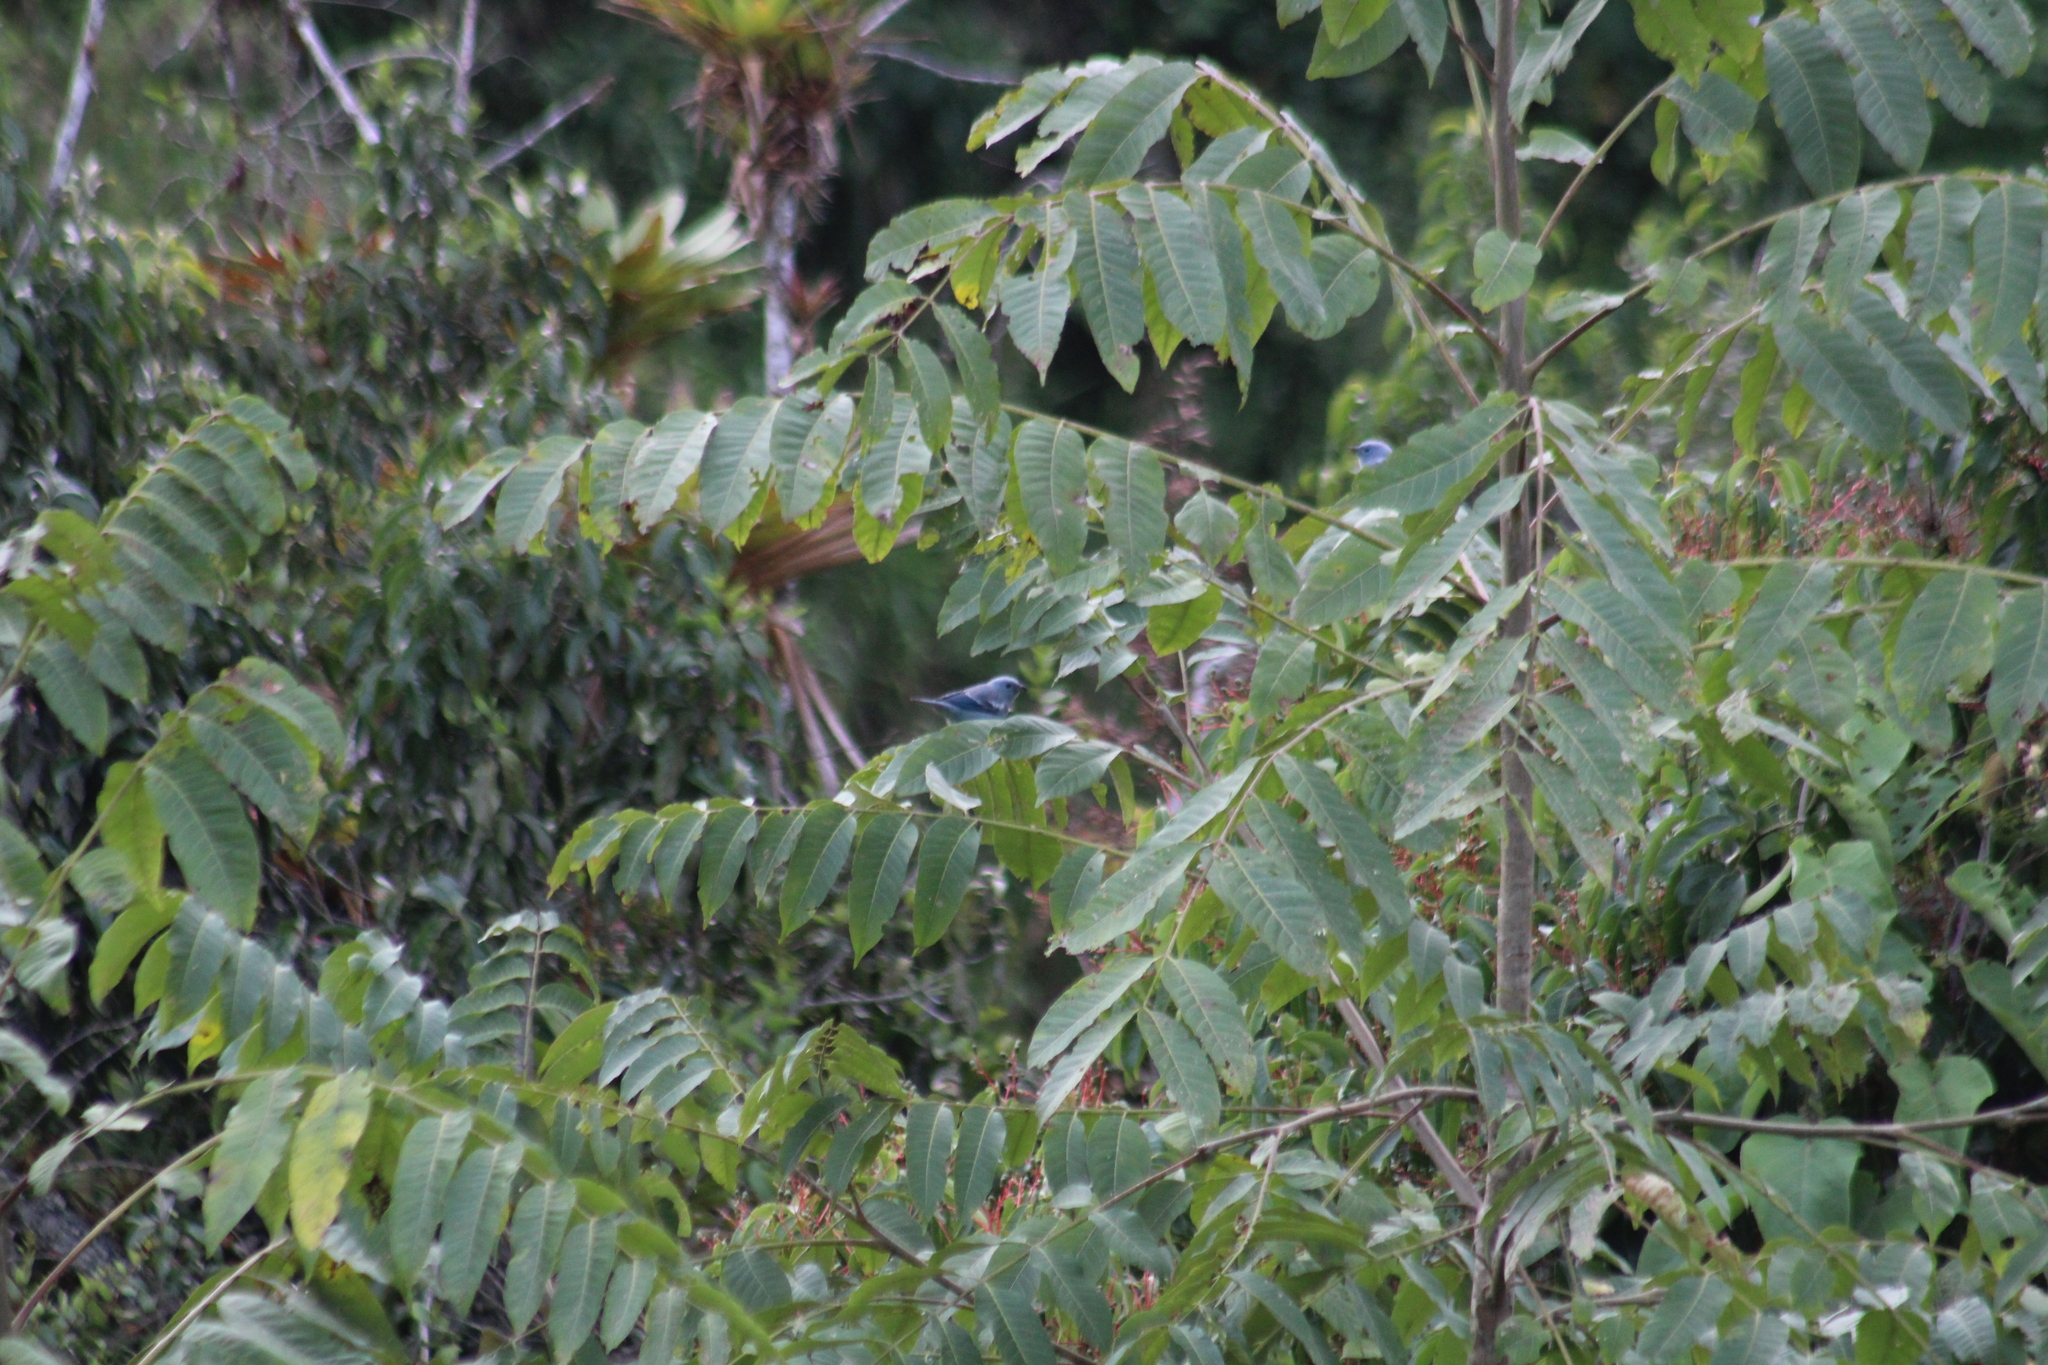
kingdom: Animalia
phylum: Chordata
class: Aves
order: Passeriformes
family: Thraupidae
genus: Thraupis
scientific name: Thraupis episcopus
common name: Blue-grey tanager
